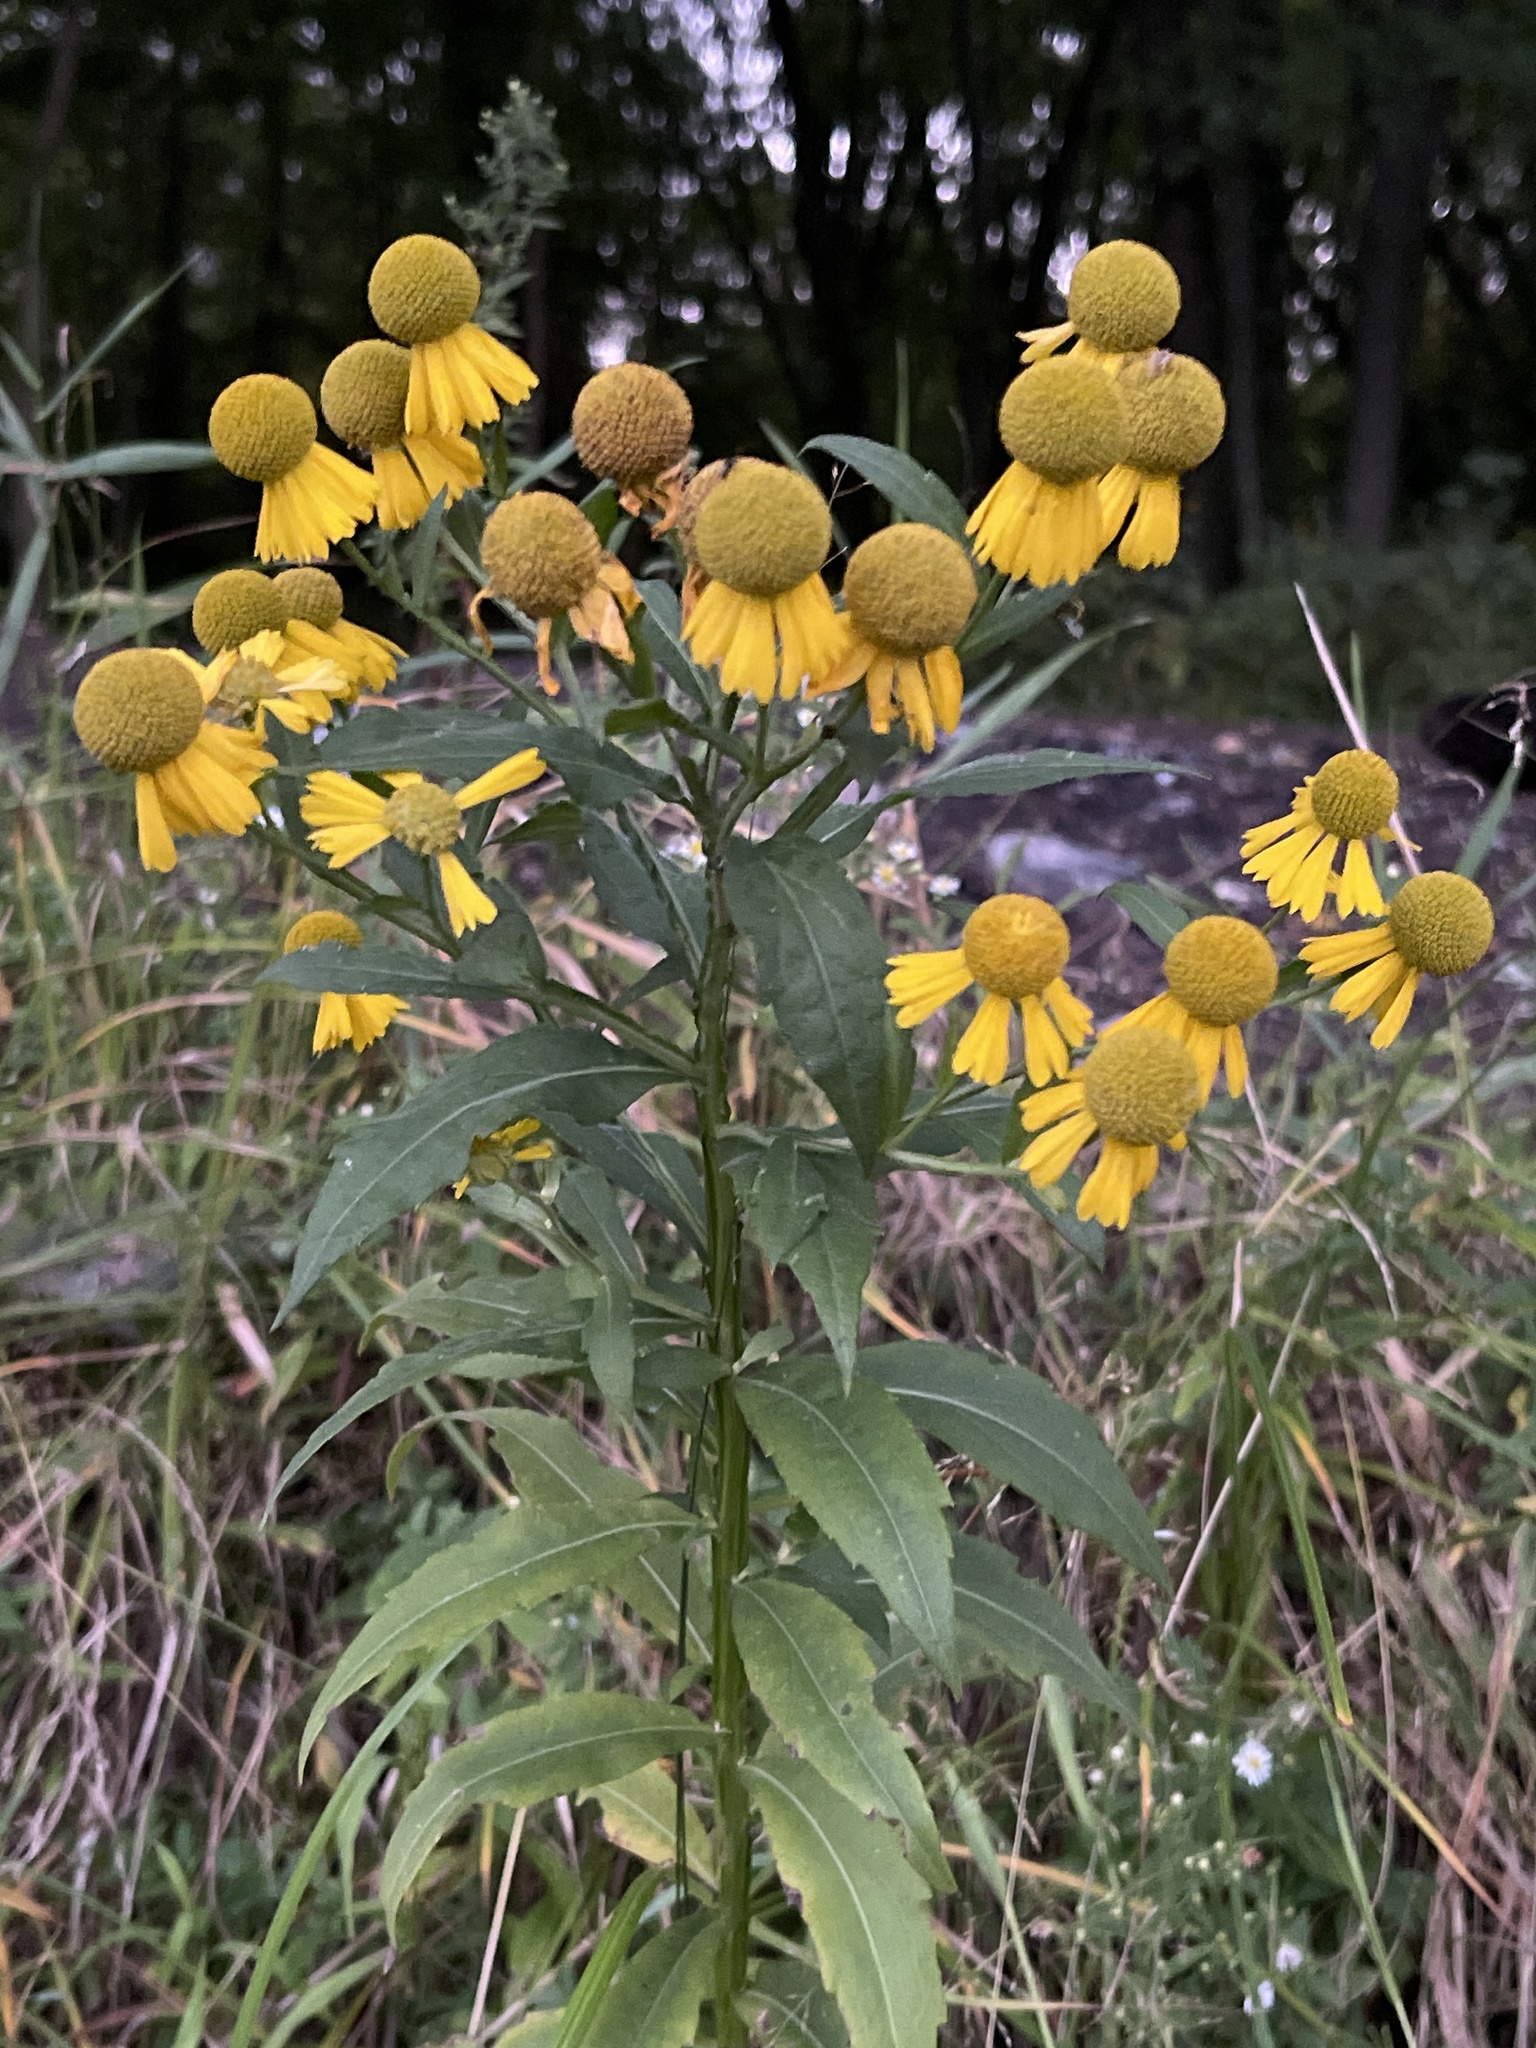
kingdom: Plantae
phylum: Tracheophyta
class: Magnoliopsida
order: Asterales
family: Asteraceae
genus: Helenium
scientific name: Helenium autumnale
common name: Sneezeweed
